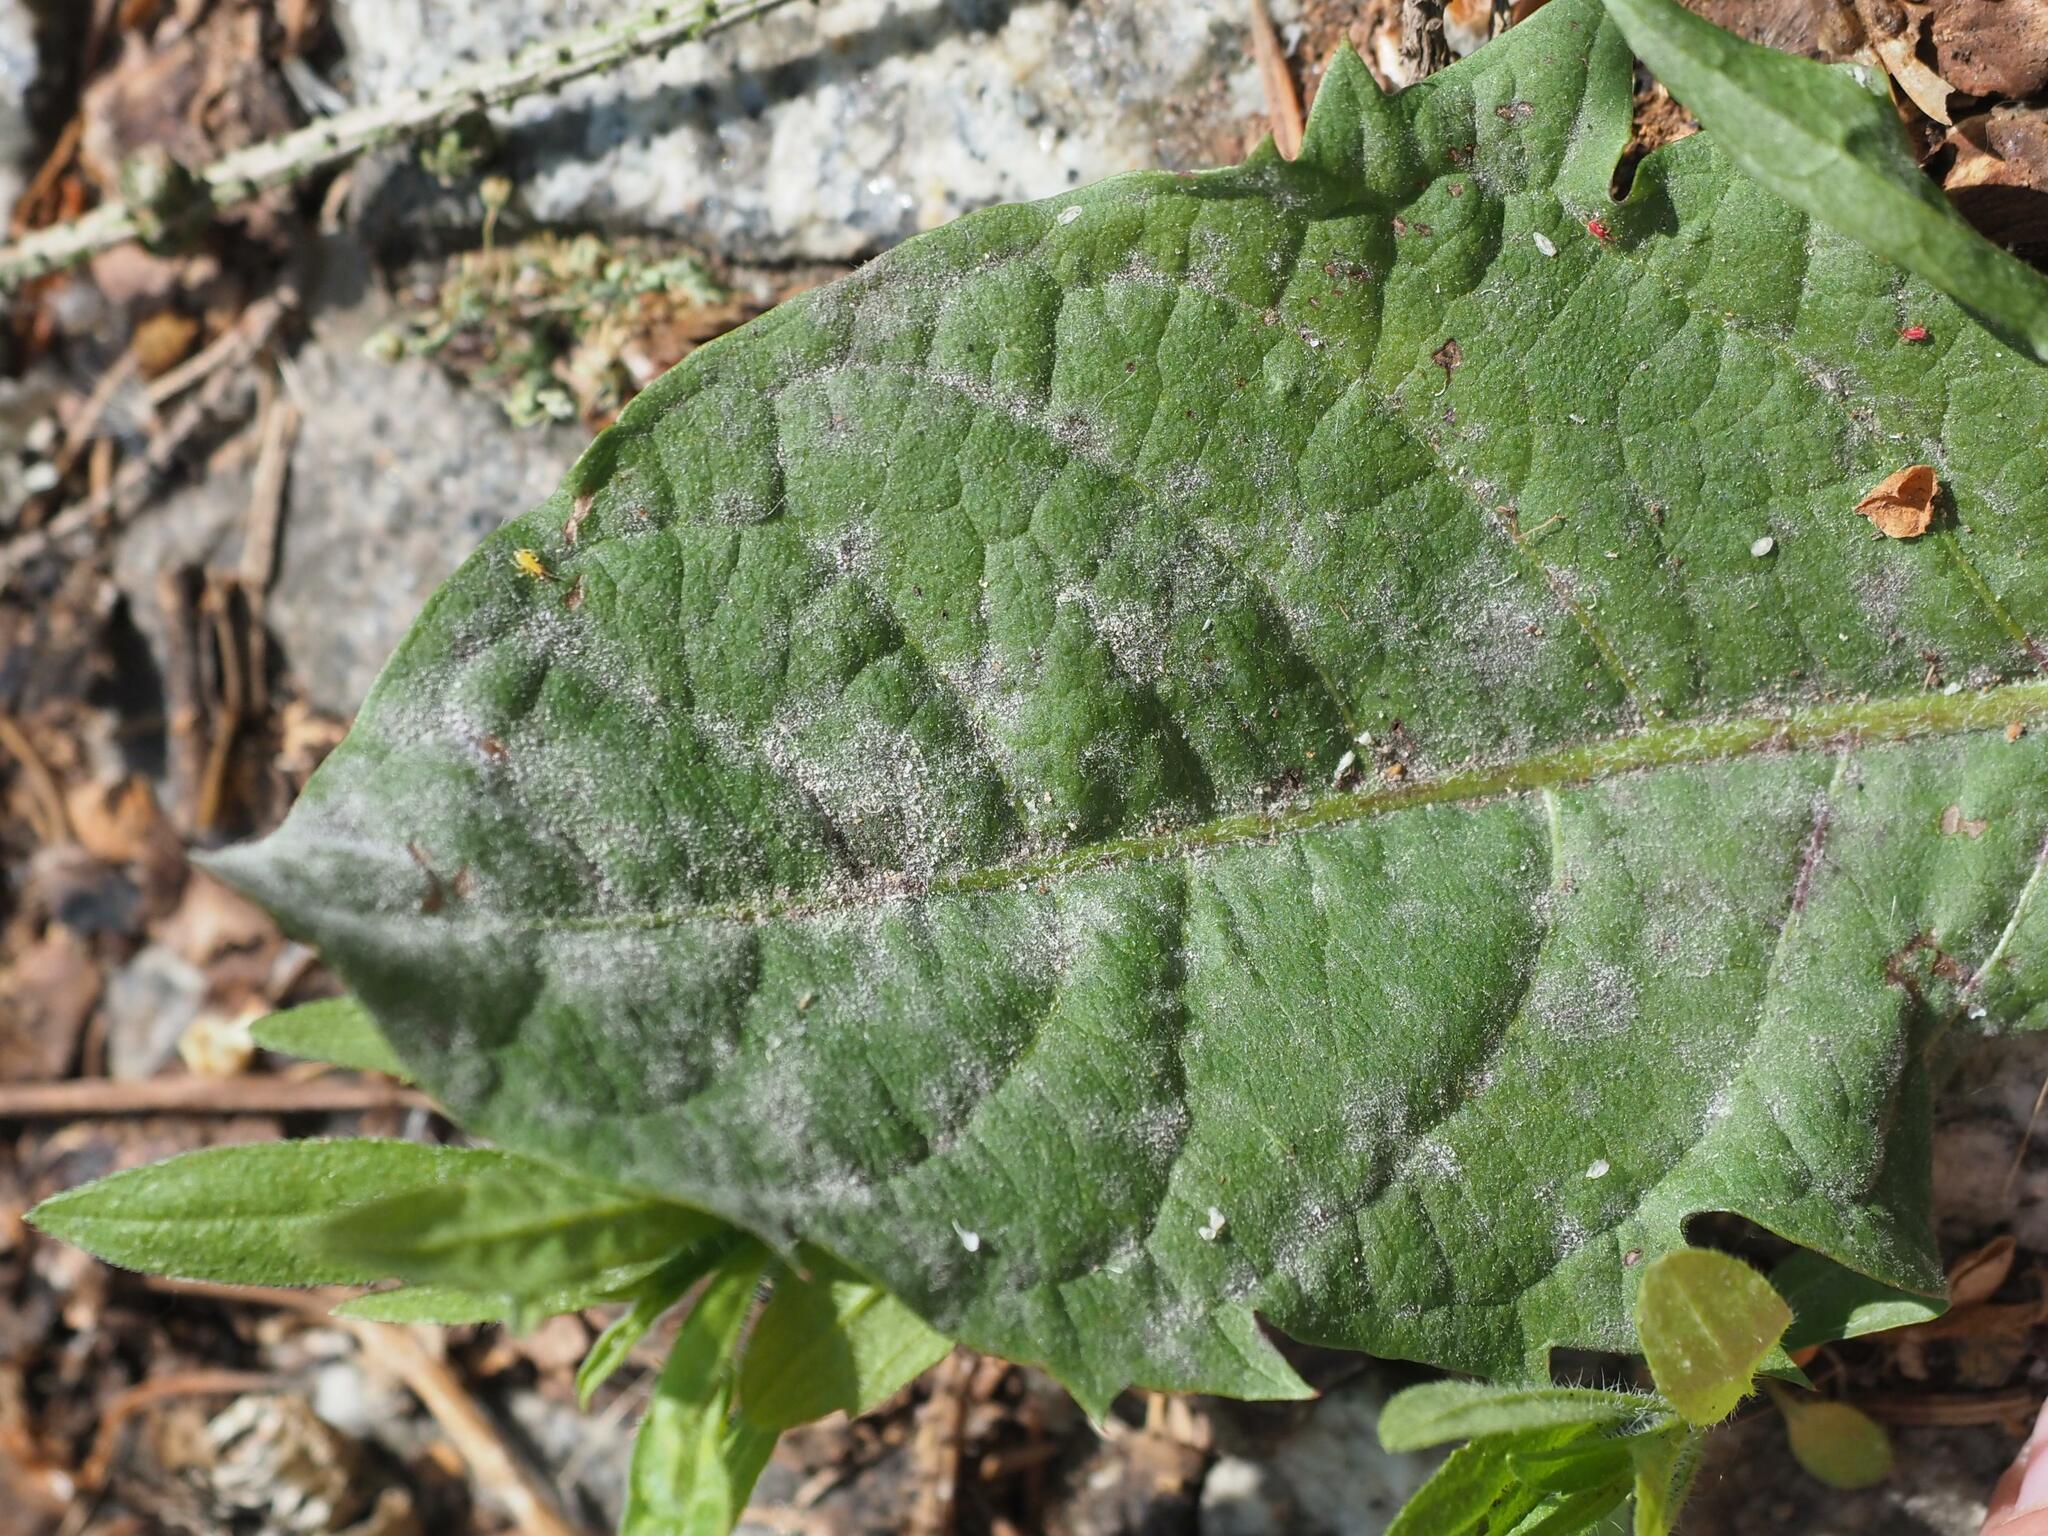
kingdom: Fungi
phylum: Ascomycota
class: Leotiomycetes
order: Helotiales
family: Erysiphaceae
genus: Podosphaera
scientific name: Podosphaera erigerontis-canadensis
